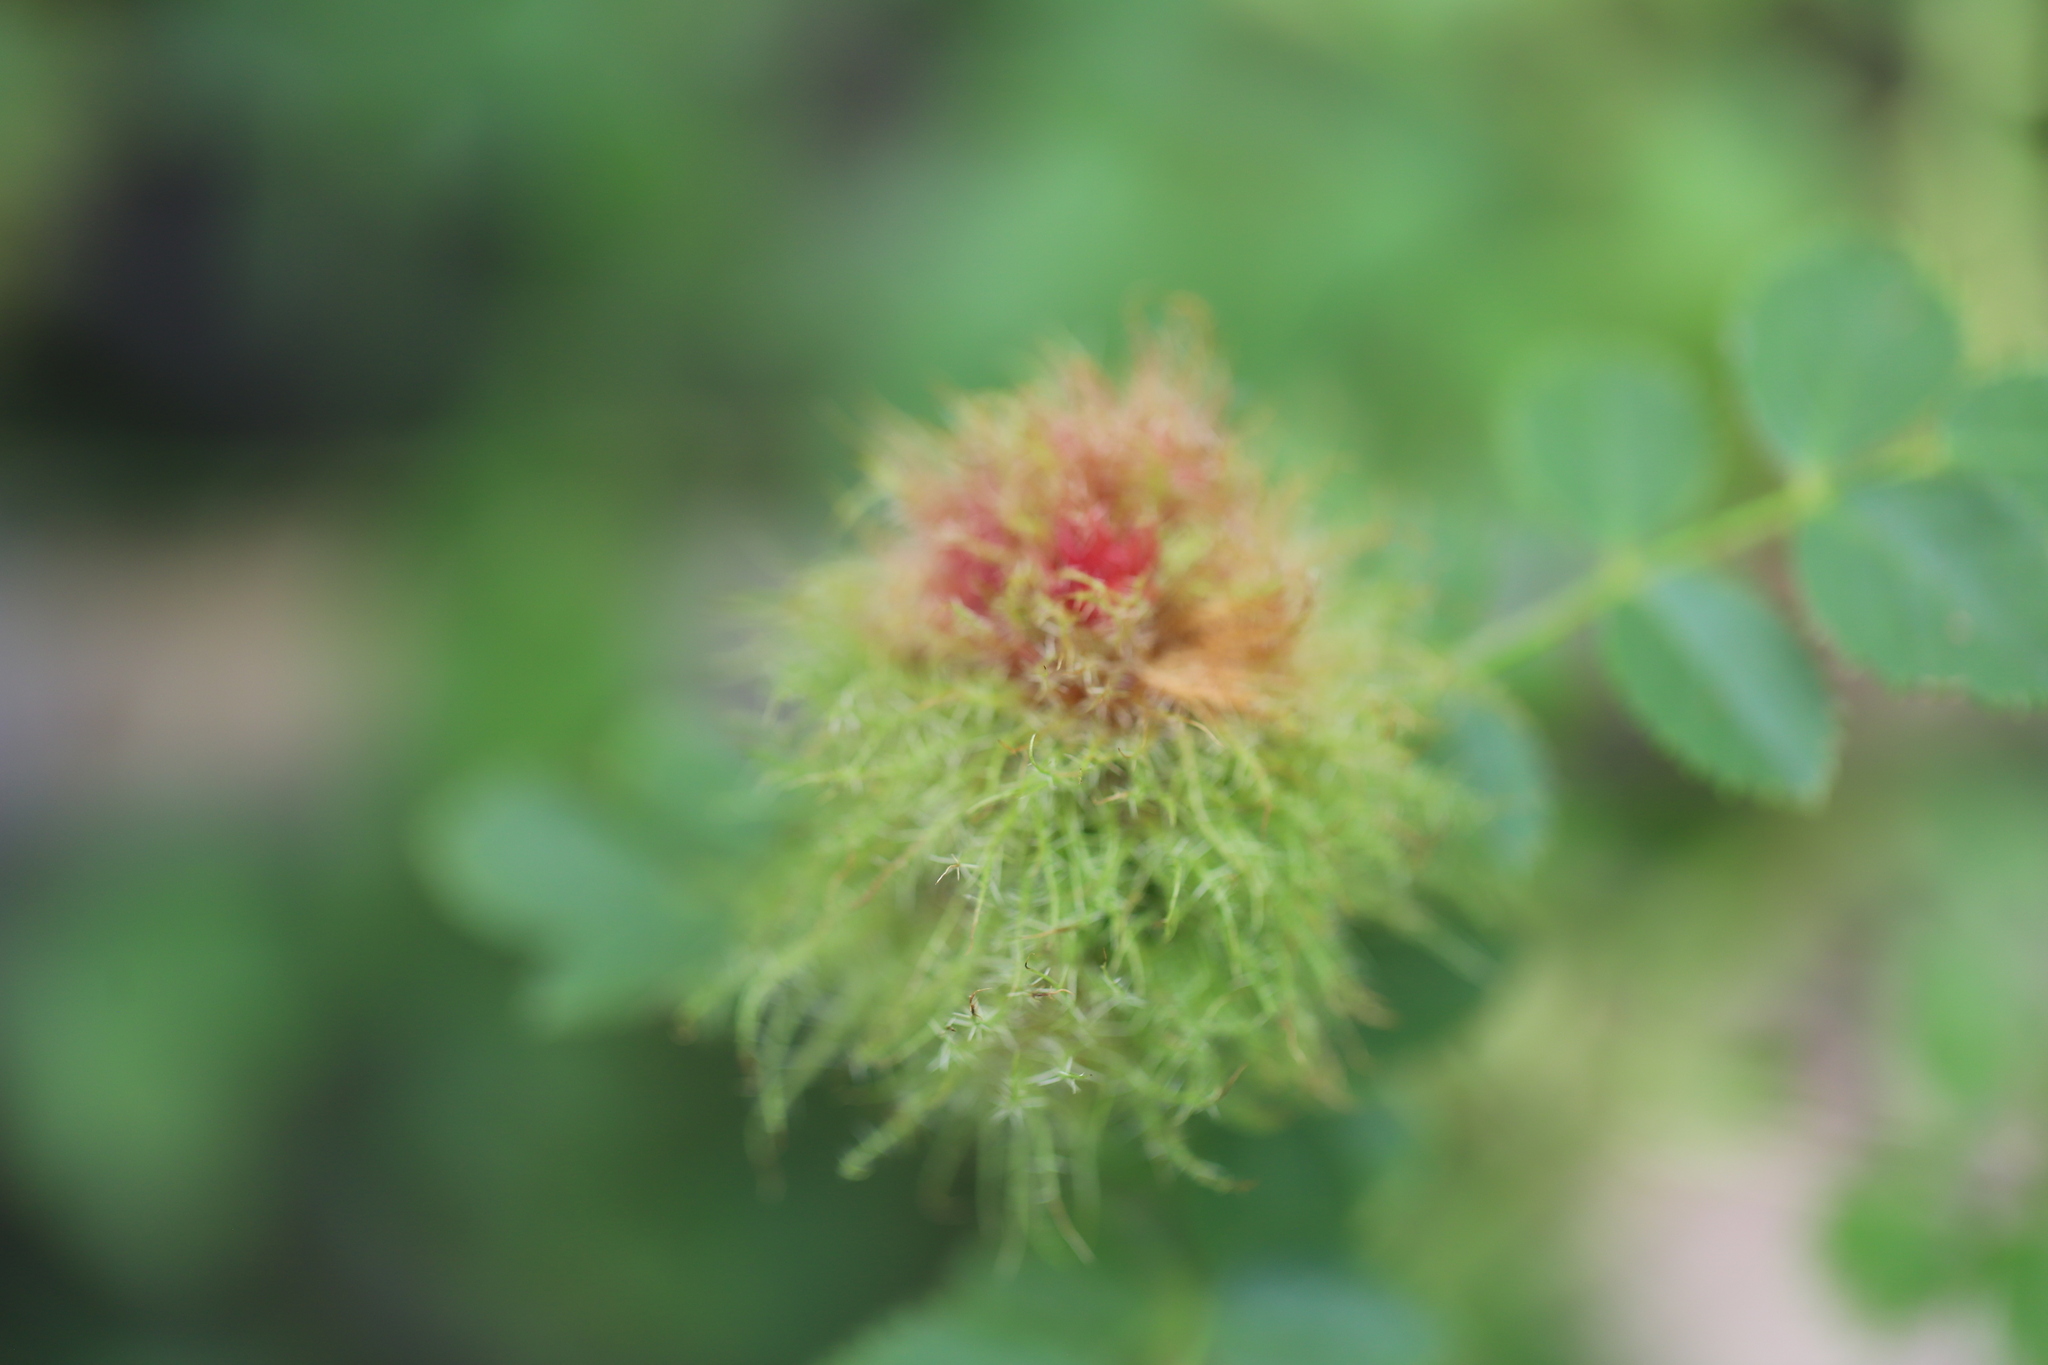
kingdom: Animalia
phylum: Arthropoda
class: Insecta
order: Hymenoptera
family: Cynipidae
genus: Diplolepis
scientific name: Diplolepis rosae
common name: Bedeguar gall
